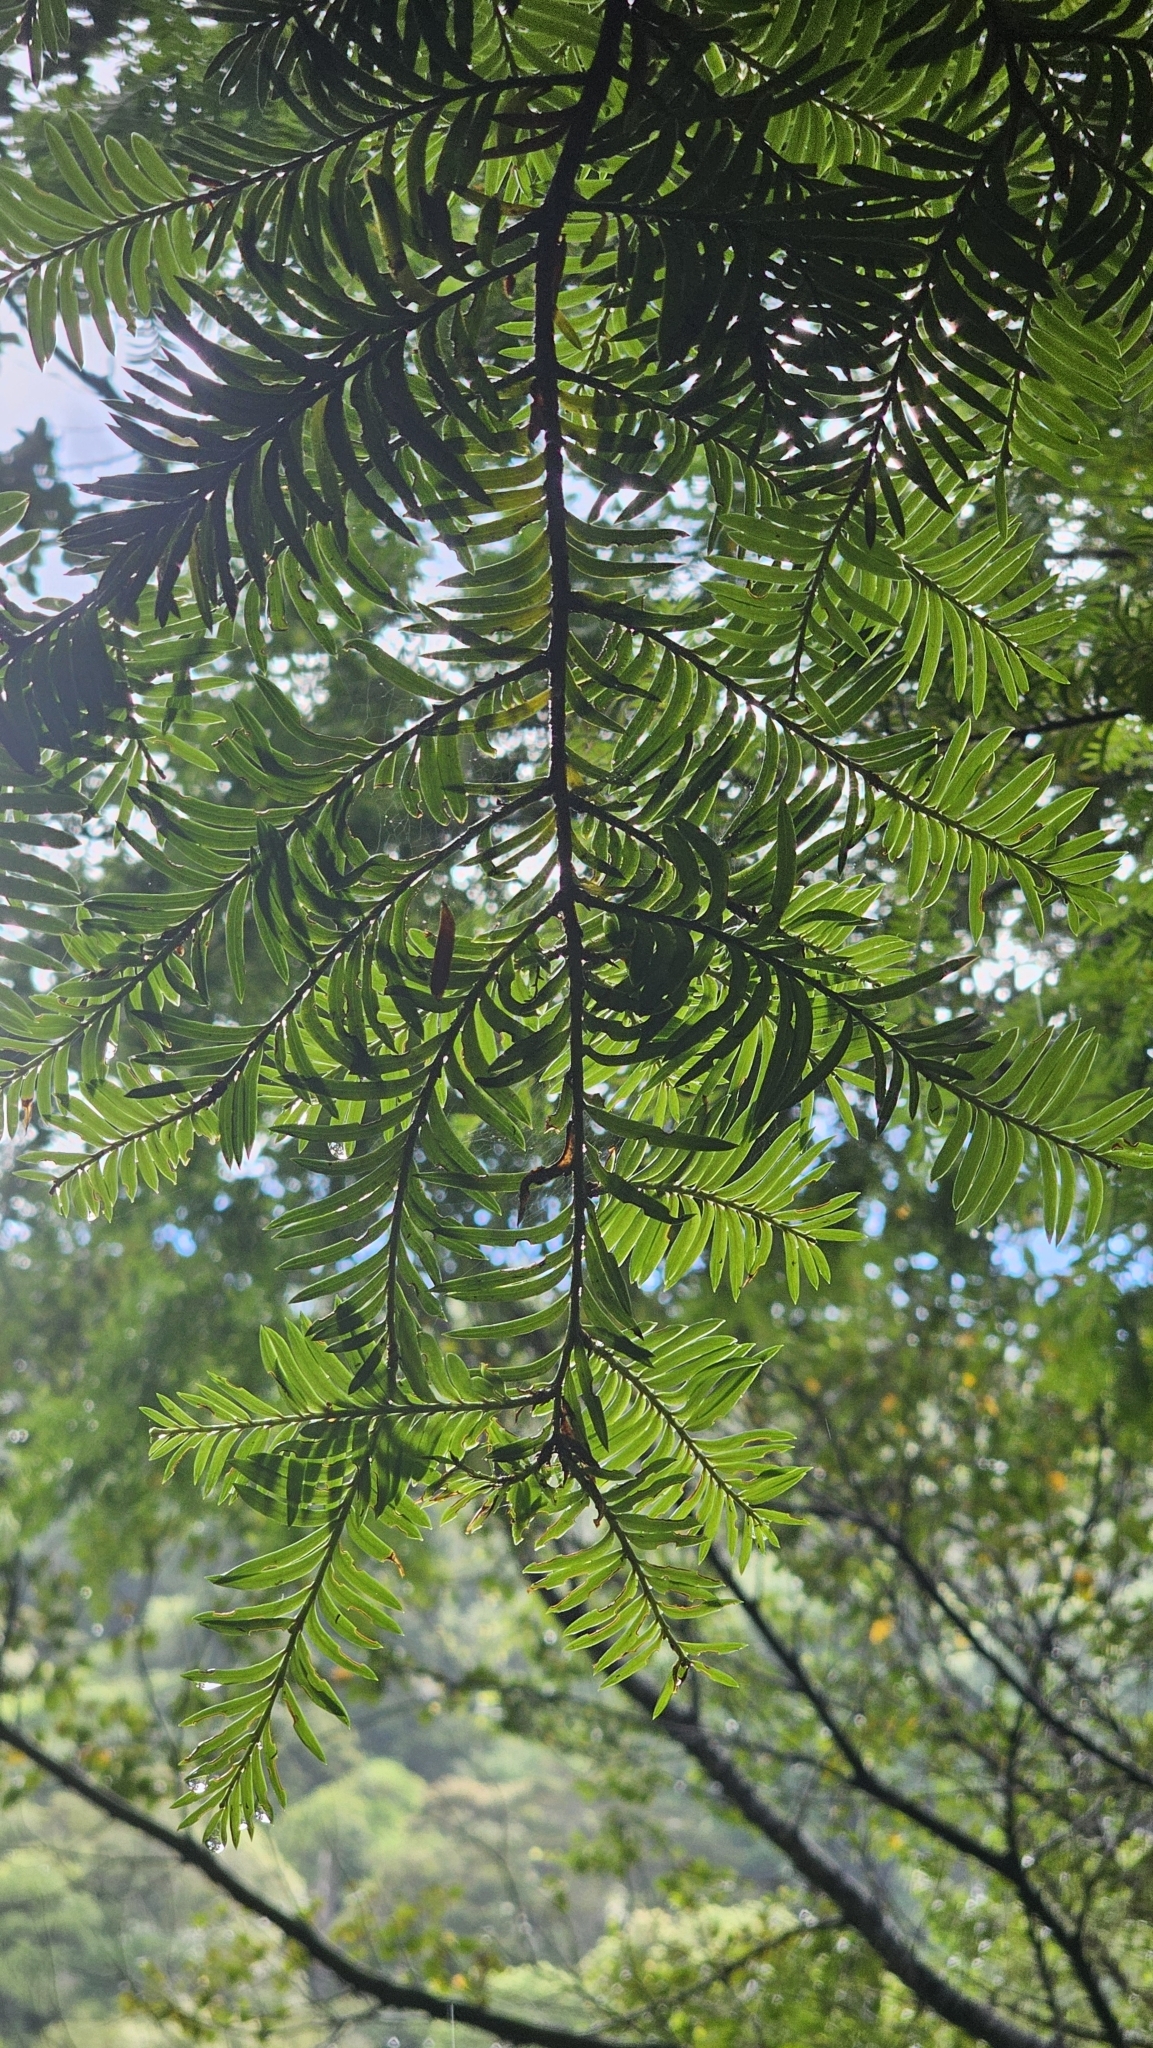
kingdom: Plantae
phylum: Tracheophyta
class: Pinopsida
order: Pinales
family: Podocarpaceae
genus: Prumnopitys
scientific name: Prumnopitys ferruginea
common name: Brown pine
